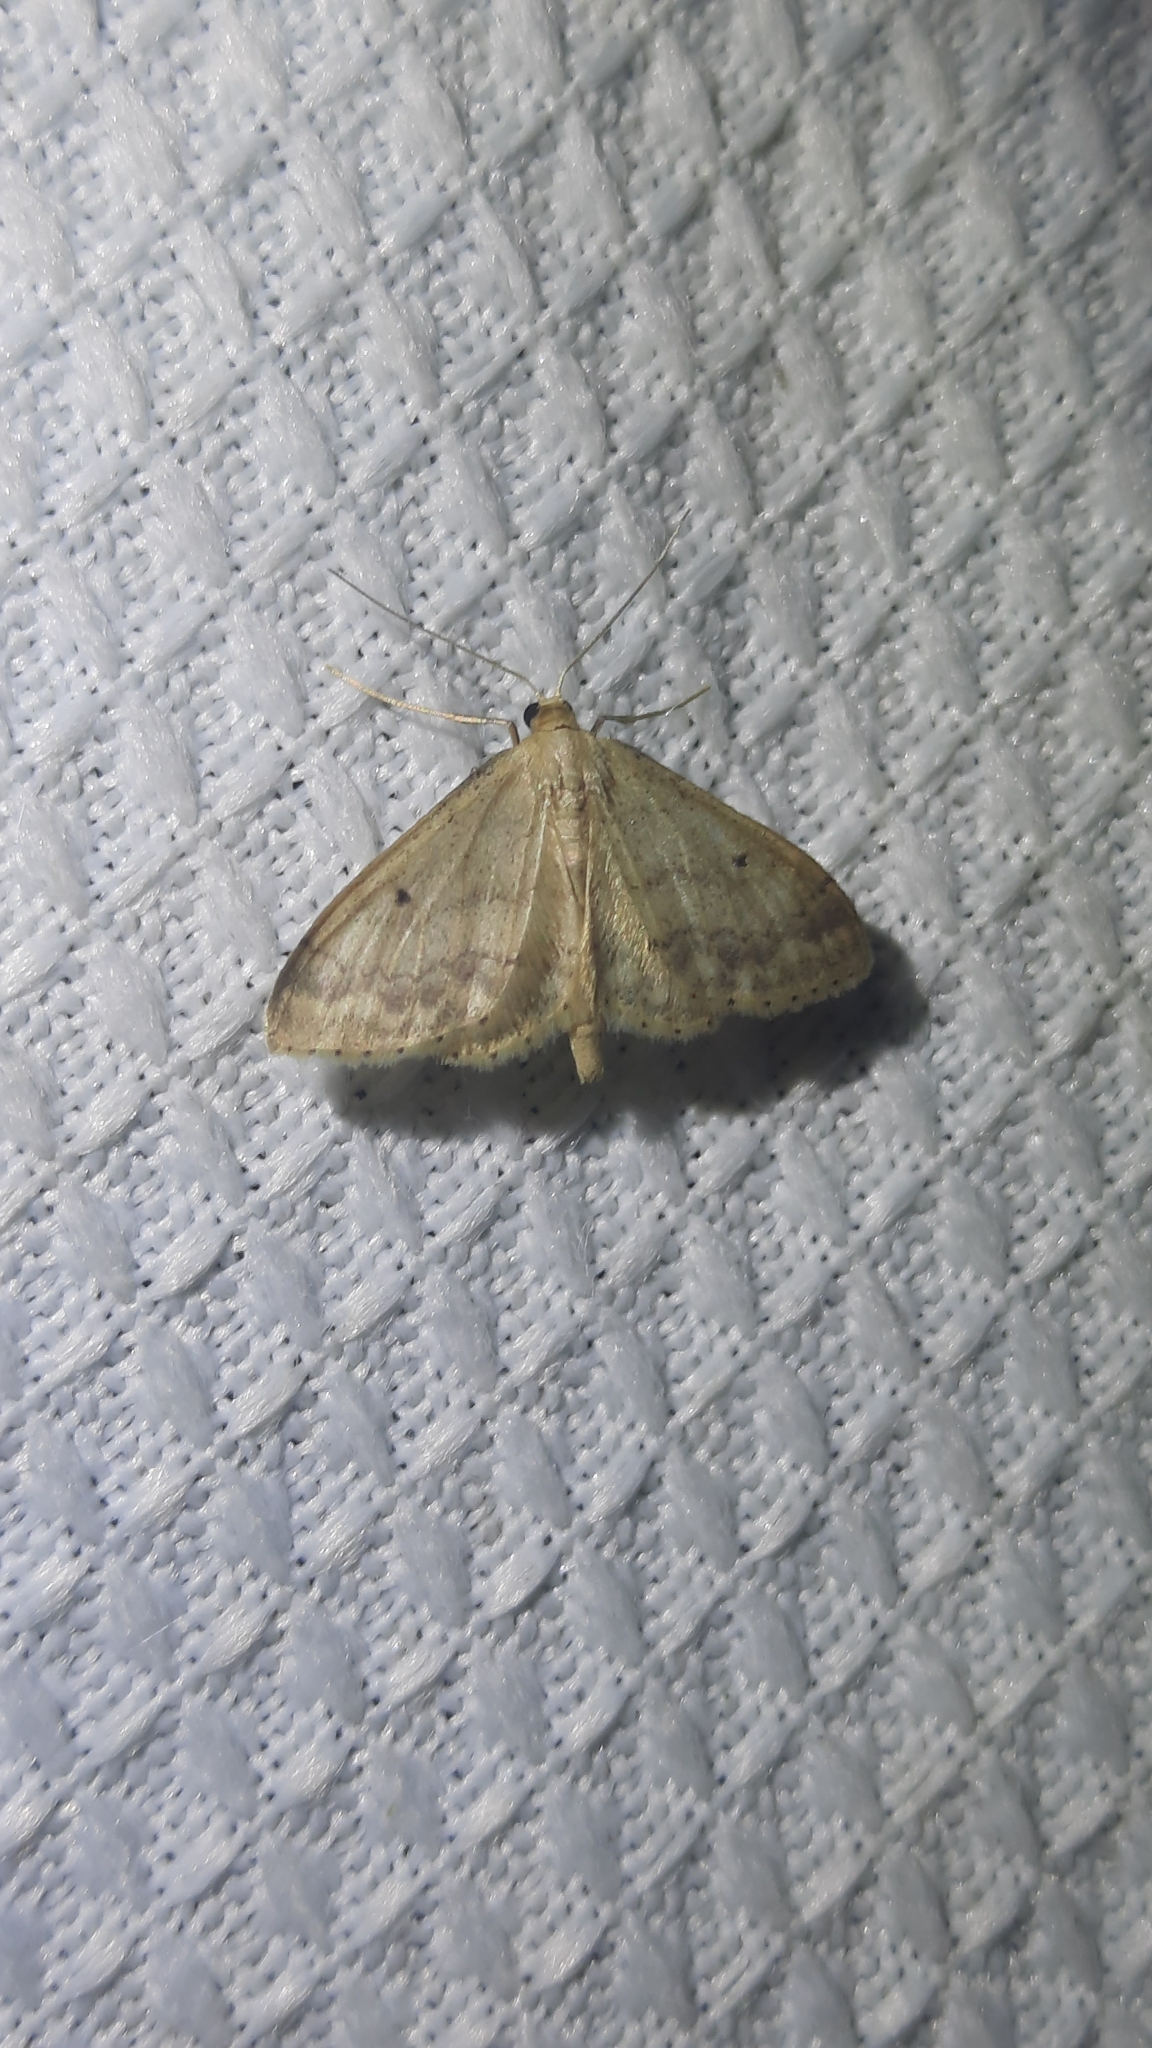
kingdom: Animalia
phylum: Arthropoda
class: Insecta
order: Lepidoptera
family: Geometridae
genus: Idaea
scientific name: Idaea biselata
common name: Small fan-footed wave
